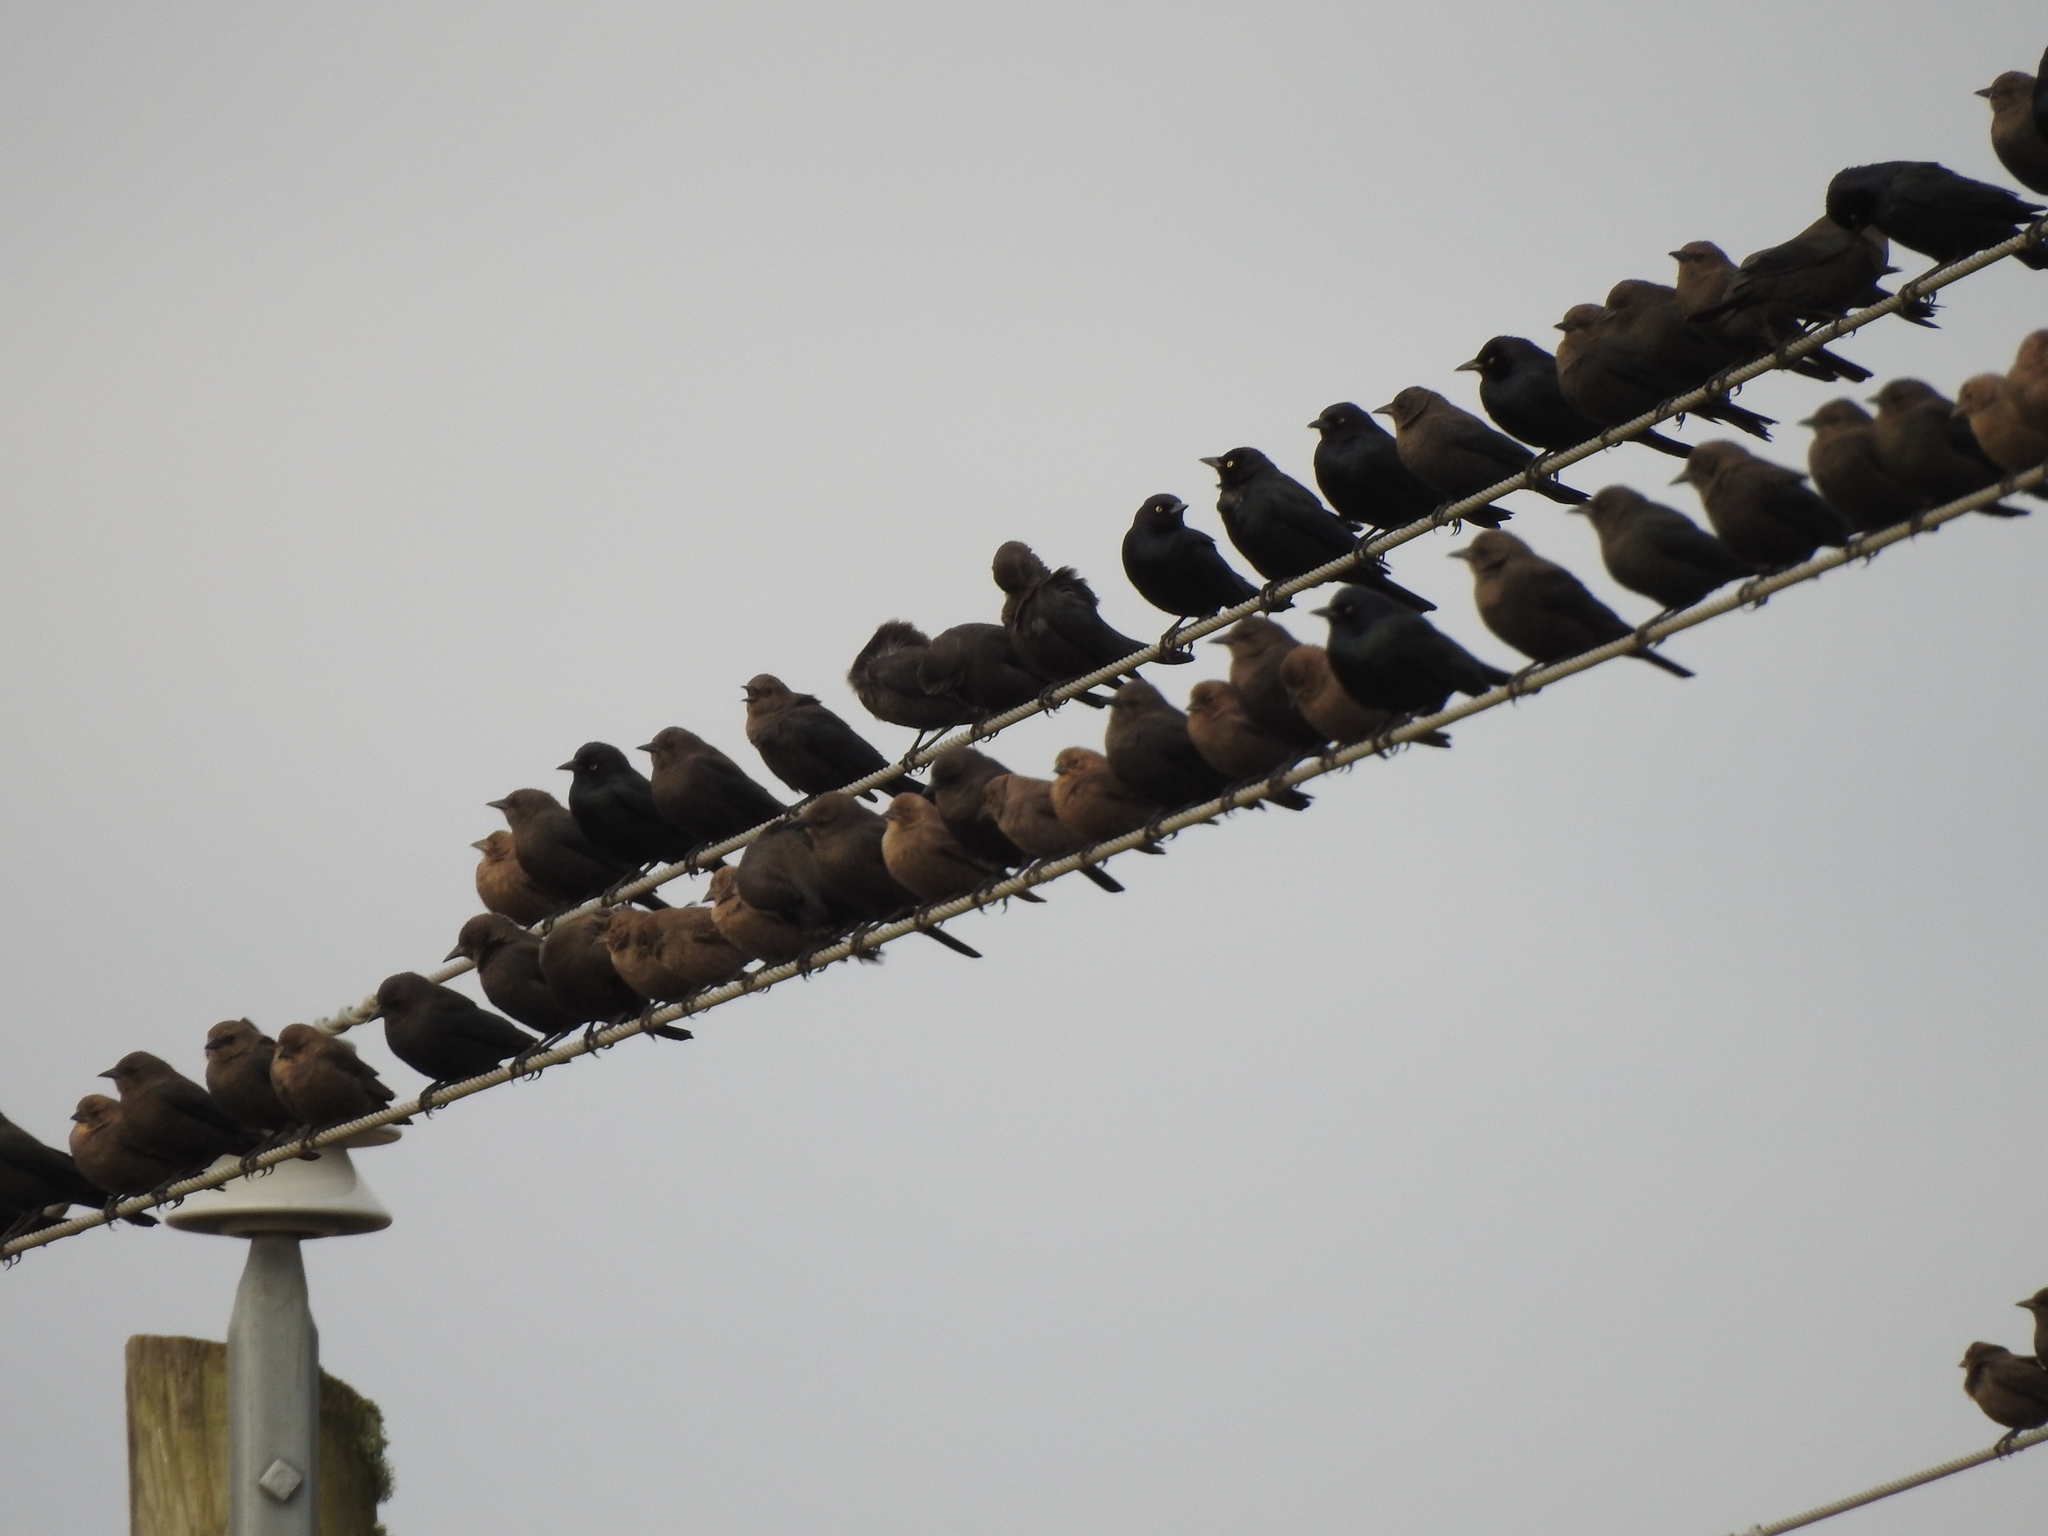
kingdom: Animalia
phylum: Chordata
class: Aves
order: Passeriformes
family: Icteridae
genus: Molothrus
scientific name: Molothrus ater
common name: Brown-headed cowbird
